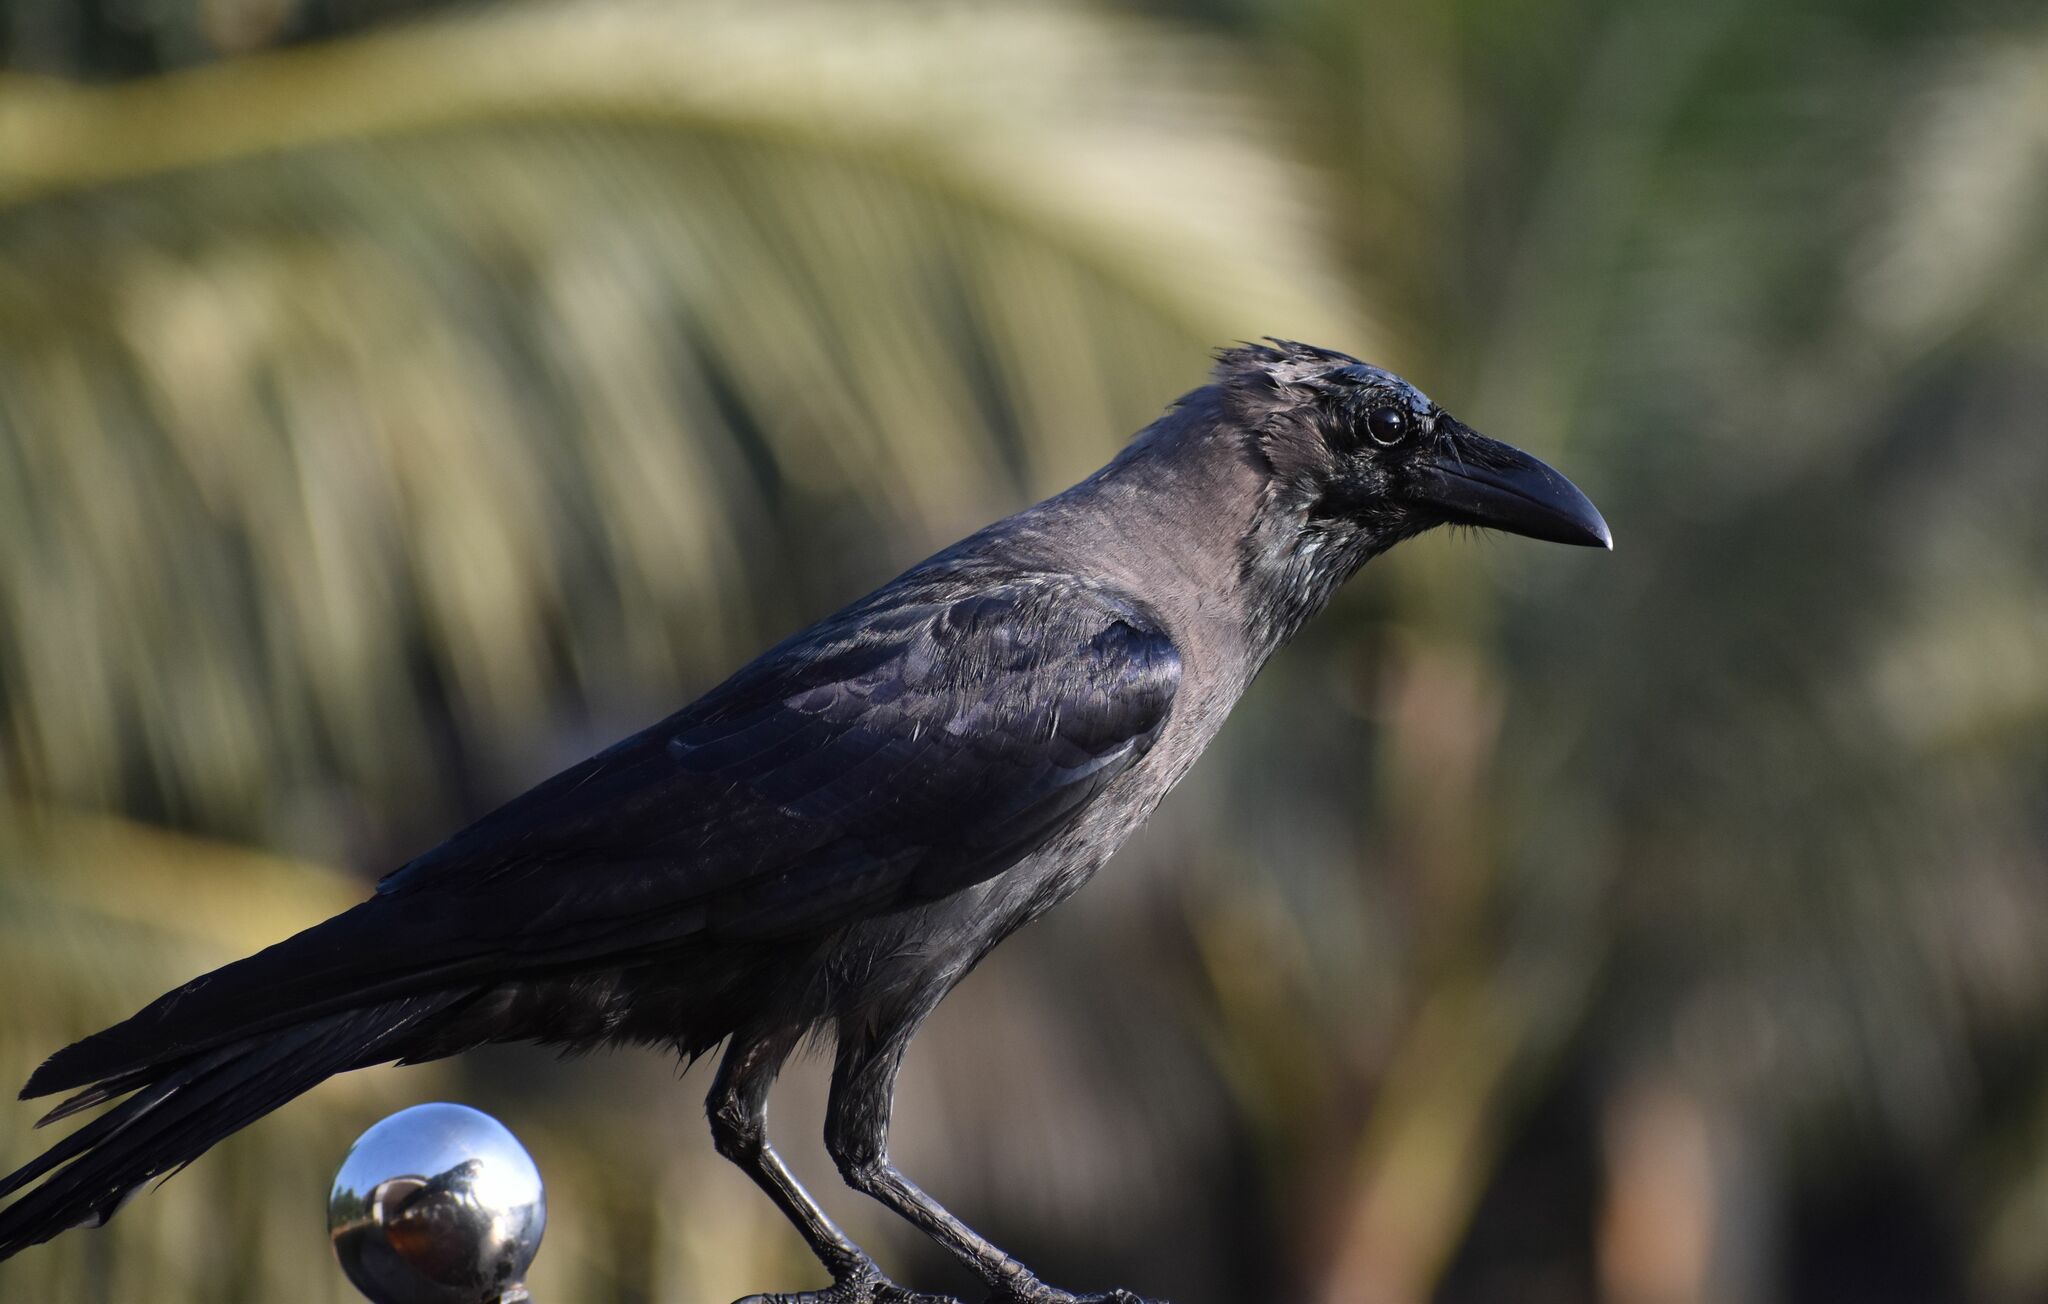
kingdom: Animalia
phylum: Chordata
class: Aves
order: Passeriformes
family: Corvidae
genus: Corvus
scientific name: Corvus splendens
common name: House crow
